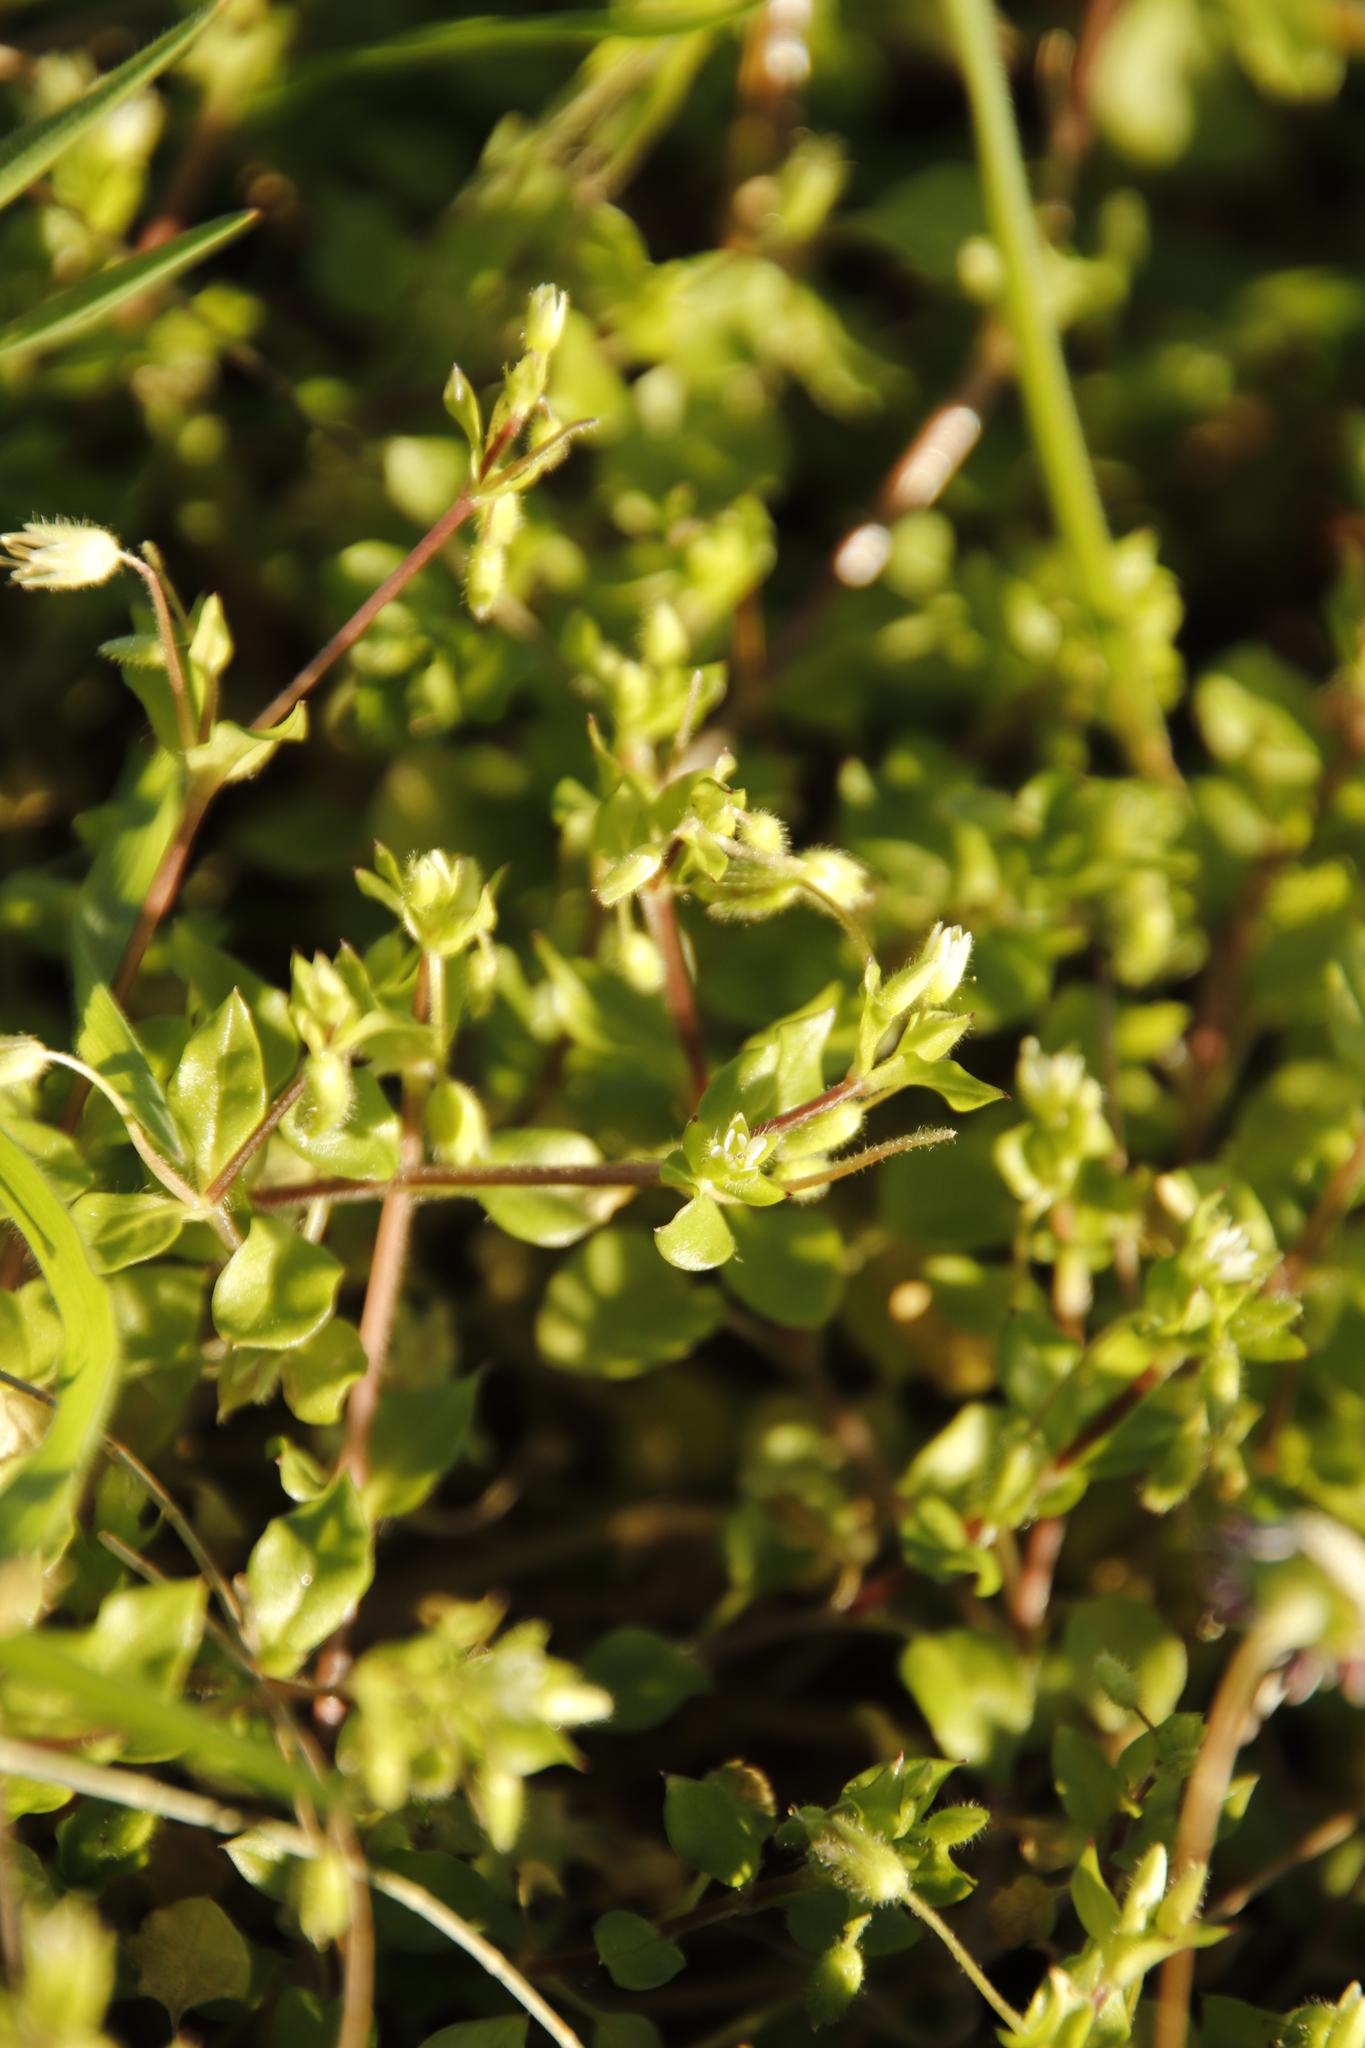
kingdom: Plantae
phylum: Tracheophyta
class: Magnoliopsida
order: Caryophyllales
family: Caryophyllaceae
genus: Stellaria
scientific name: Stellaria media
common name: Common chickweed
